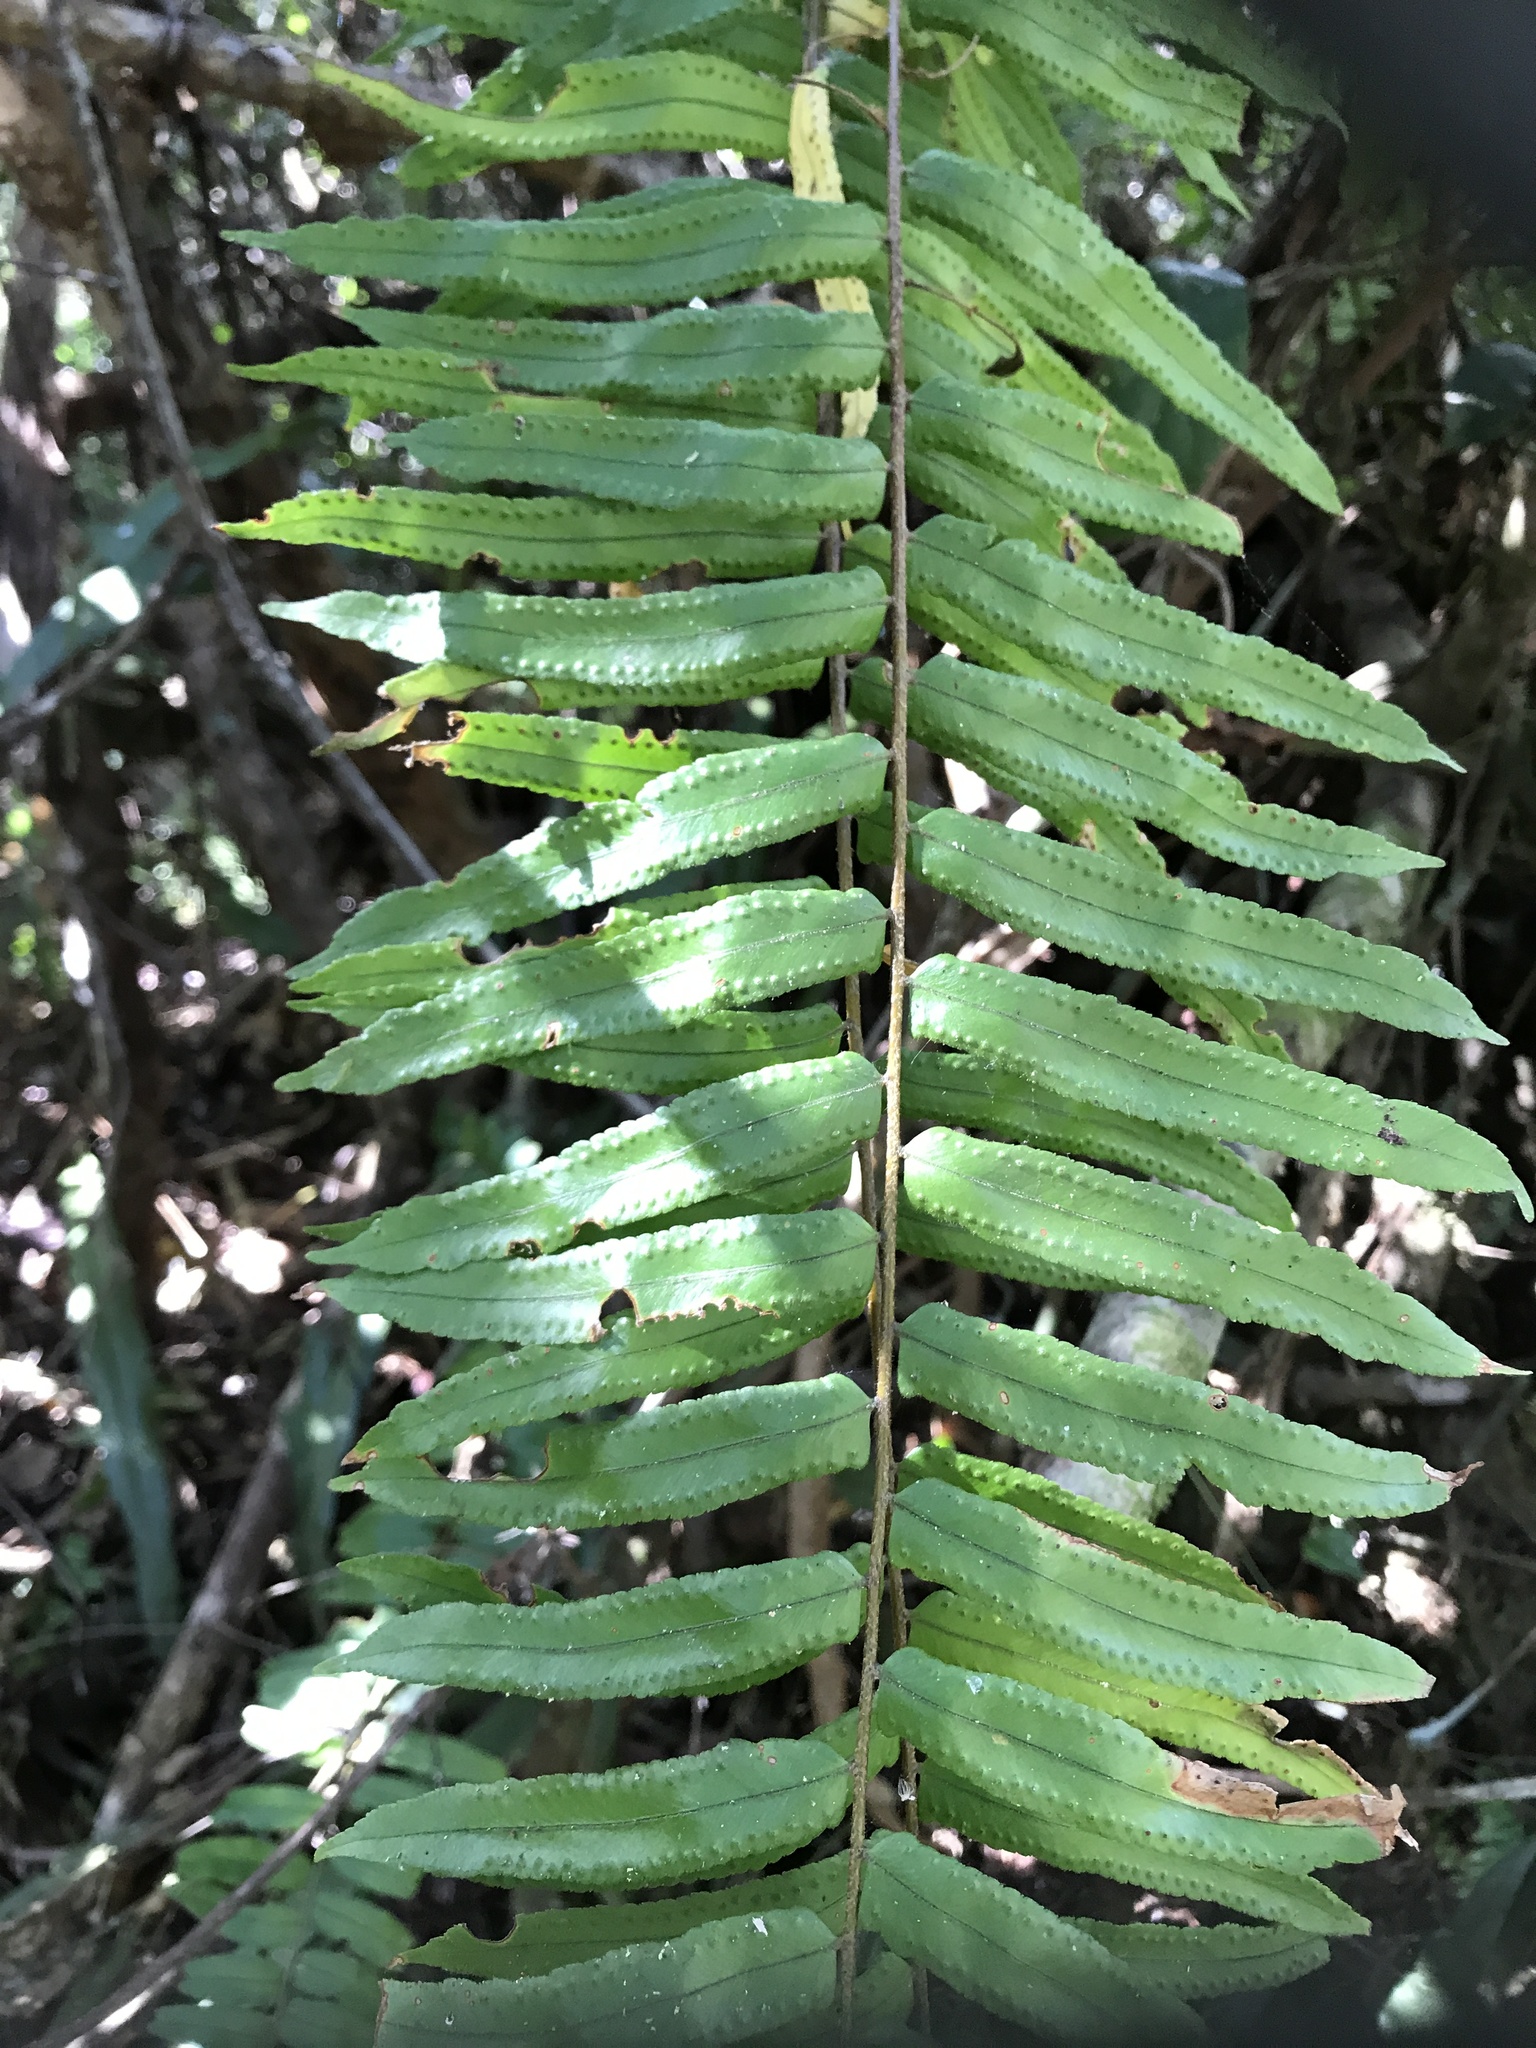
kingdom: Plantae
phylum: Tracheophyta
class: Polypodiopsida
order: Polypodiales
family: Nephrolepidaceae
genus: Nephrolepis
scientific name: Nephrolepis biserrata
